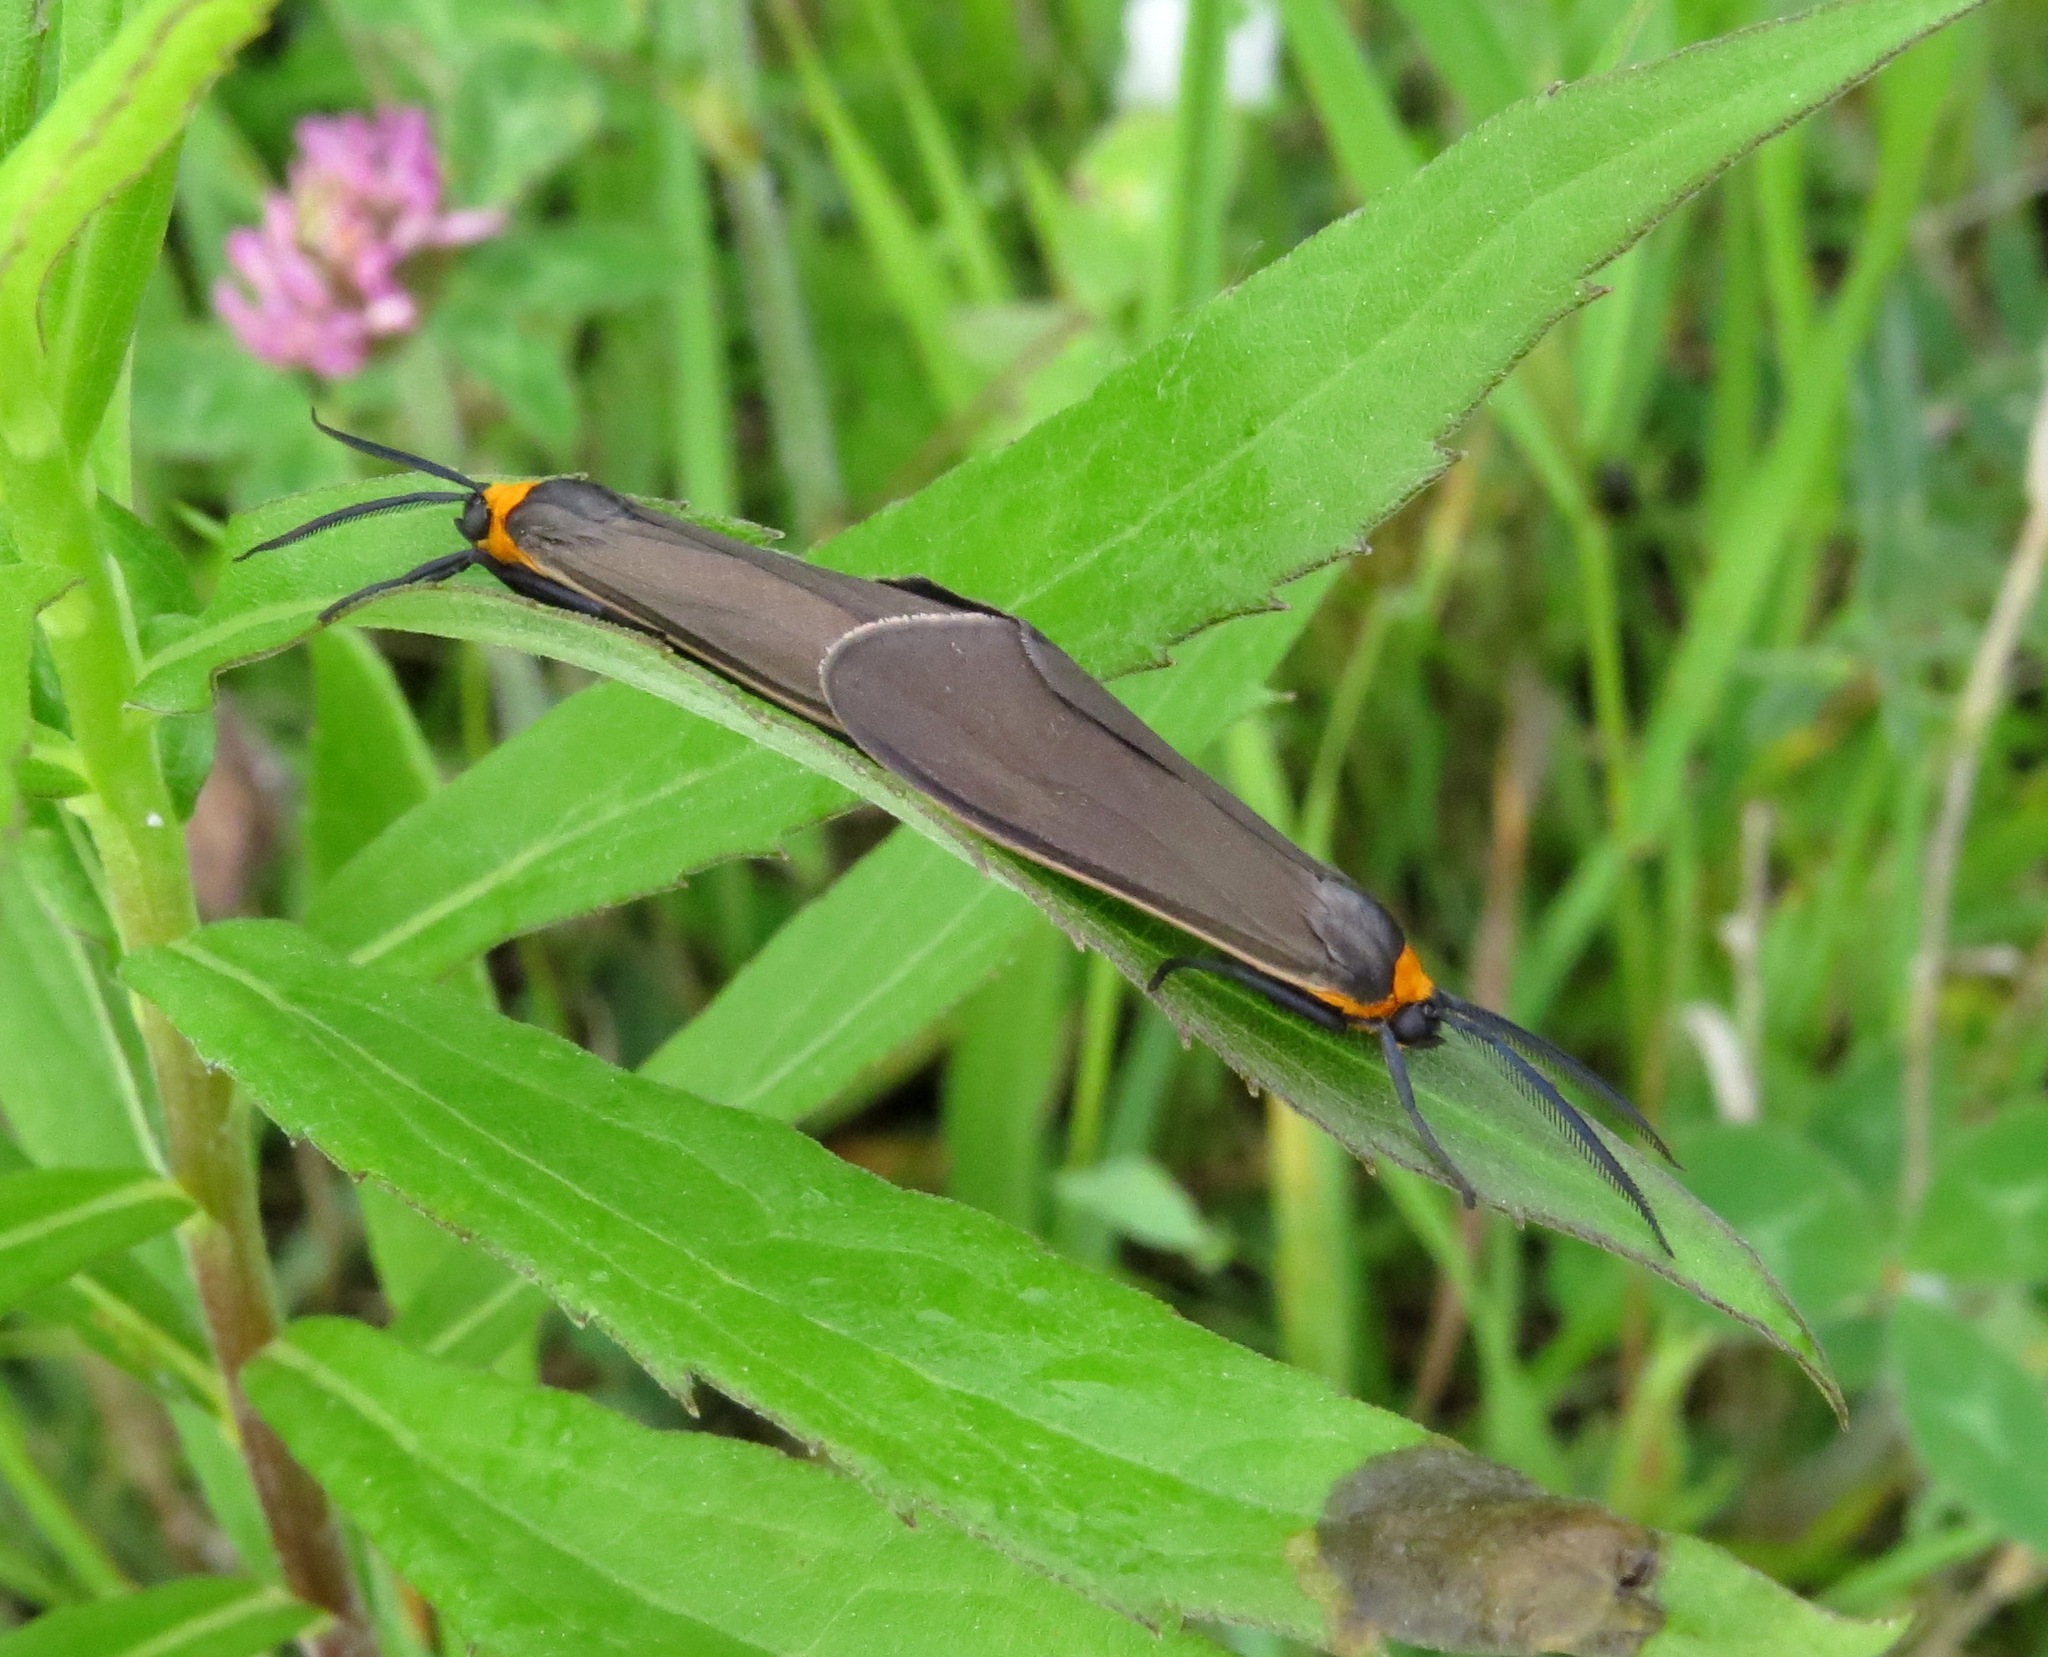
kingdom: Animalia
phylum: Arthropoda
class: Insecta
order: Lepidoptera
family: Erebidae
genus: Ctenucha
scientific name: Ctenucha virginica
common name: Virginia ctenucha moth
